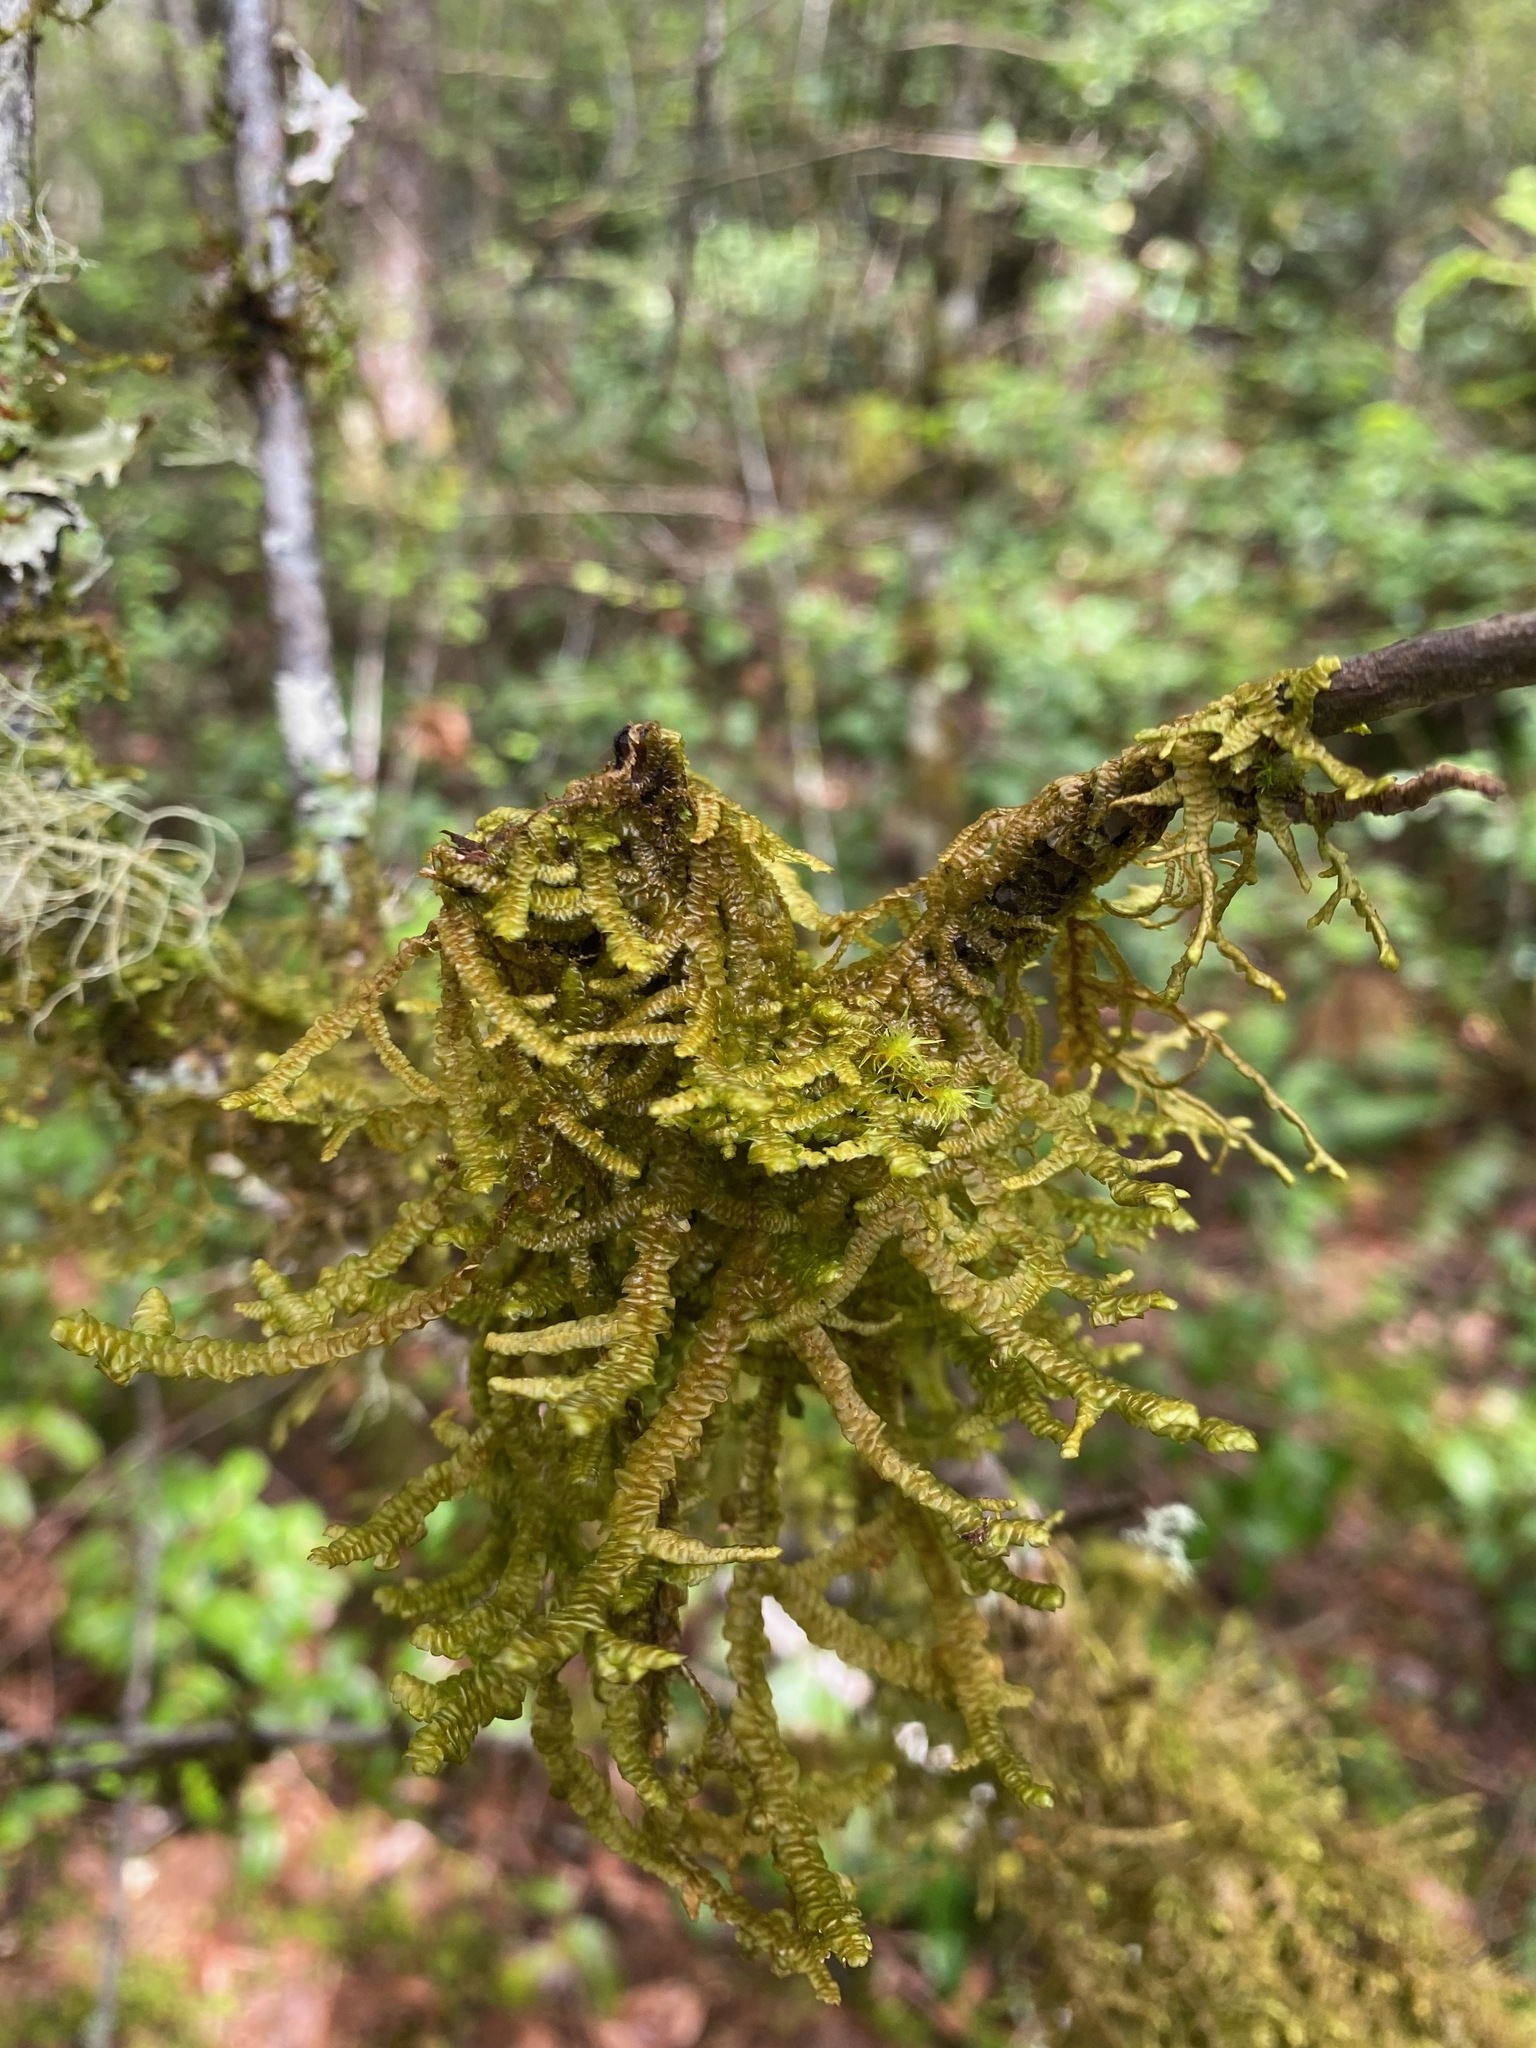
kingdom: Plantae
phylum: Marchantiophyta
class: Jungermanniopsida
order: Porellales
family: Porellaceae
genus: Porella
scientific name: Porella navicularis
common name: Tree ruffle liverwort
